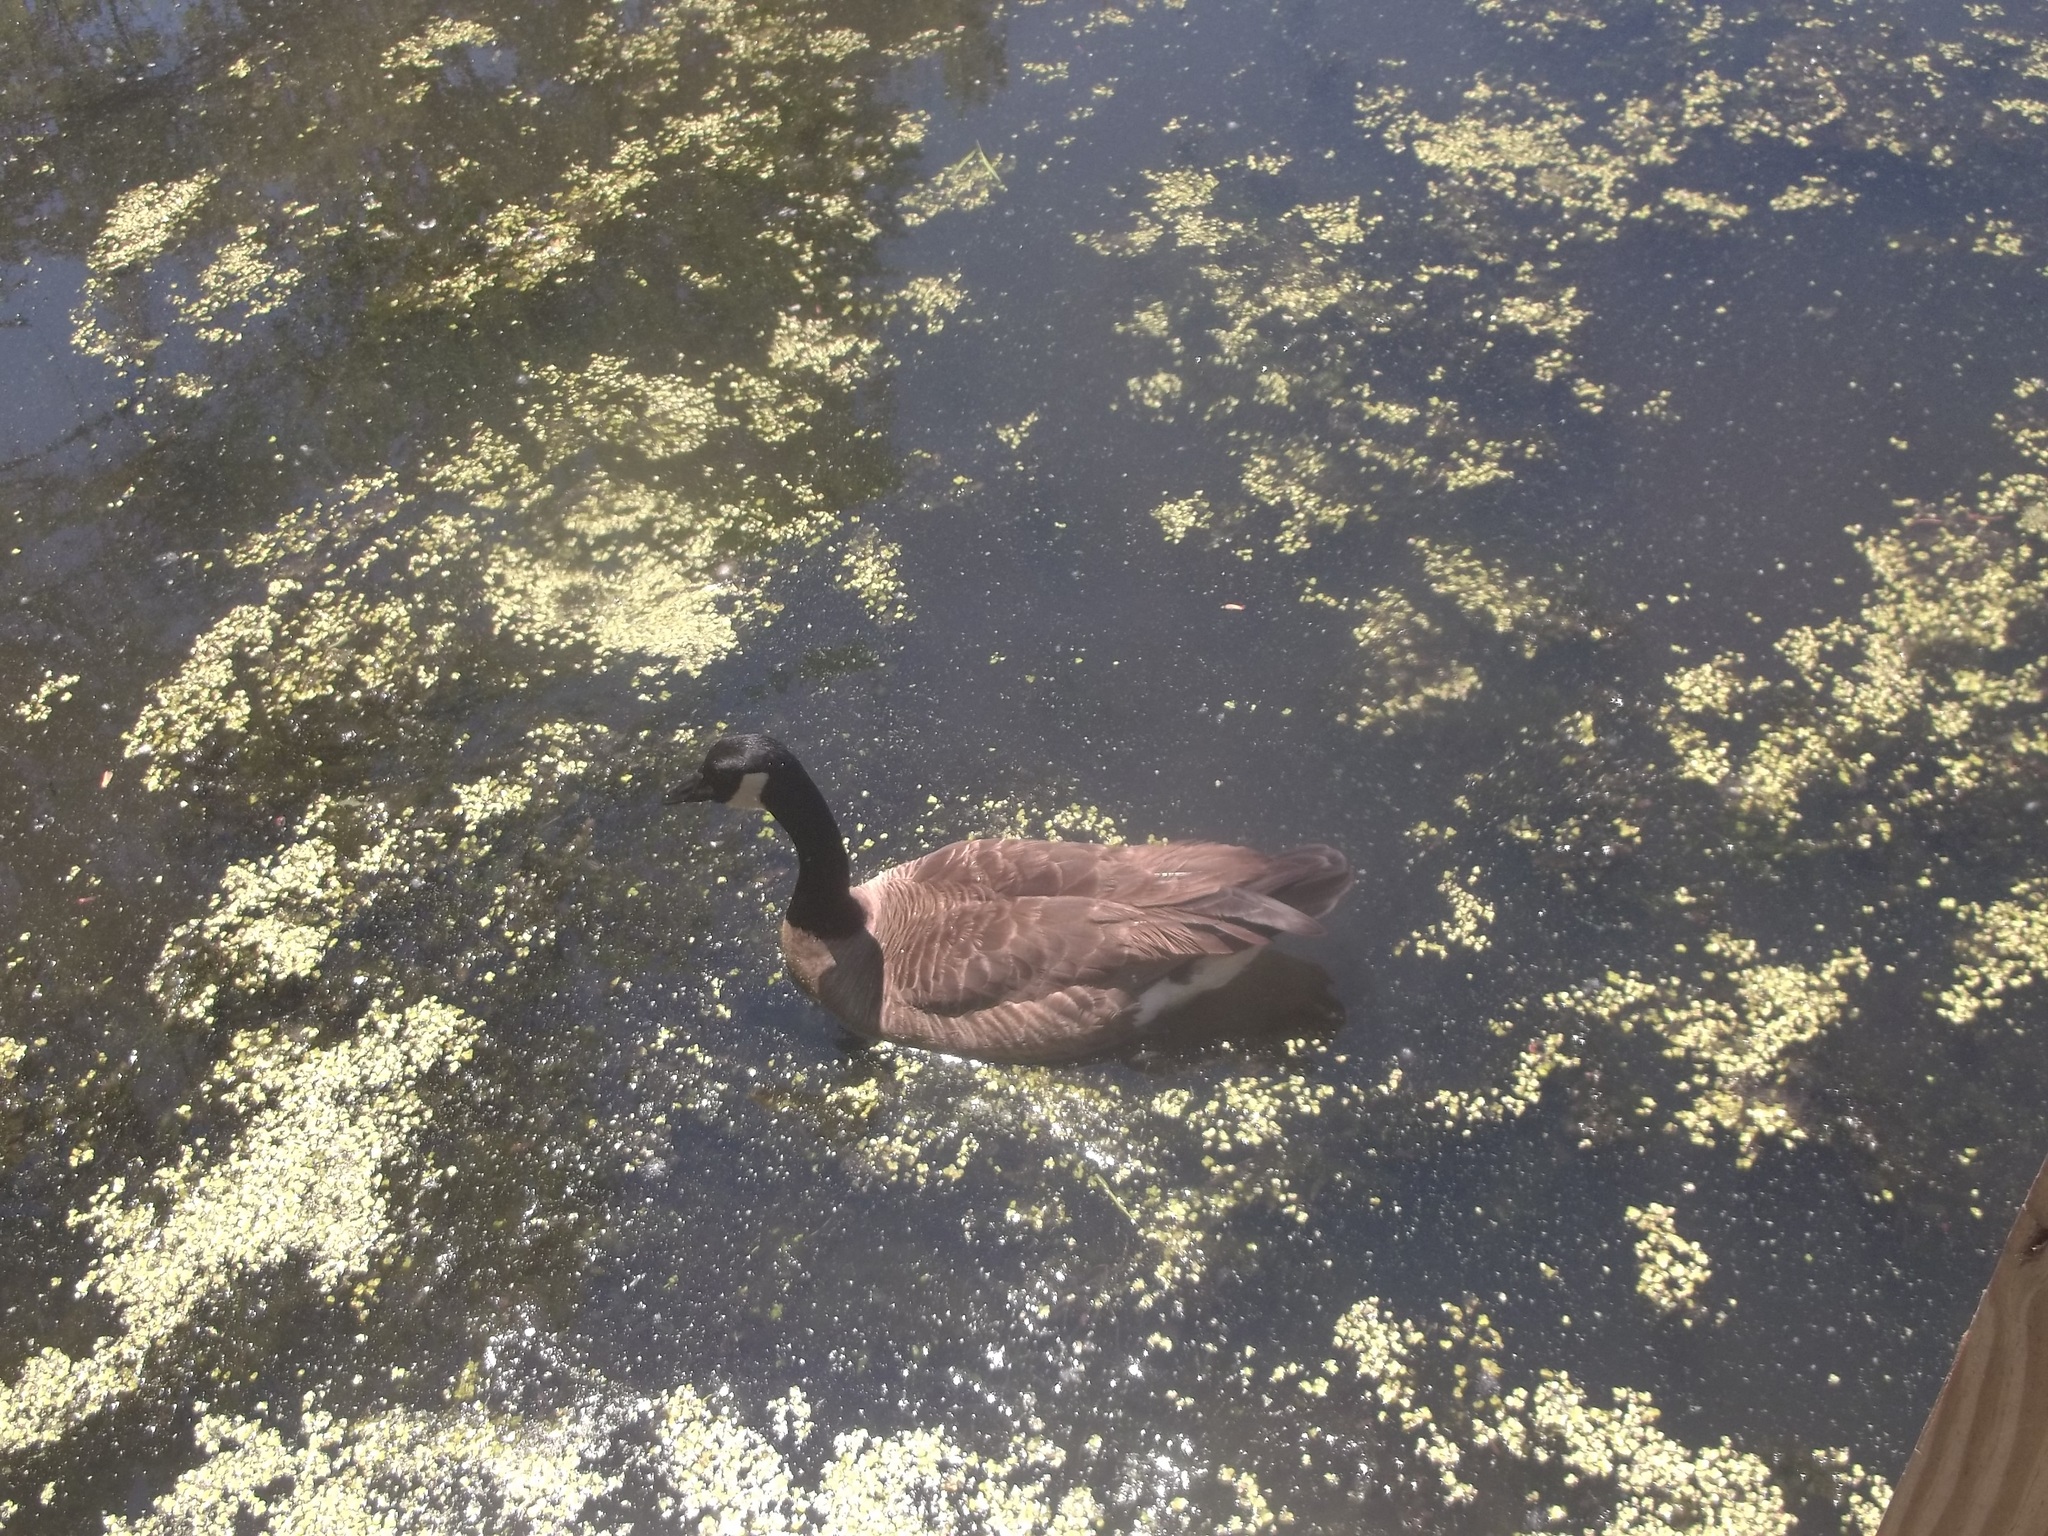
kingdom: Animalia
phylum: Chordata
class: Aves
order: Anseriformes
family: Anatidae
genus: Branta
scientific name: Branta canadensis
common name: Canada goose
